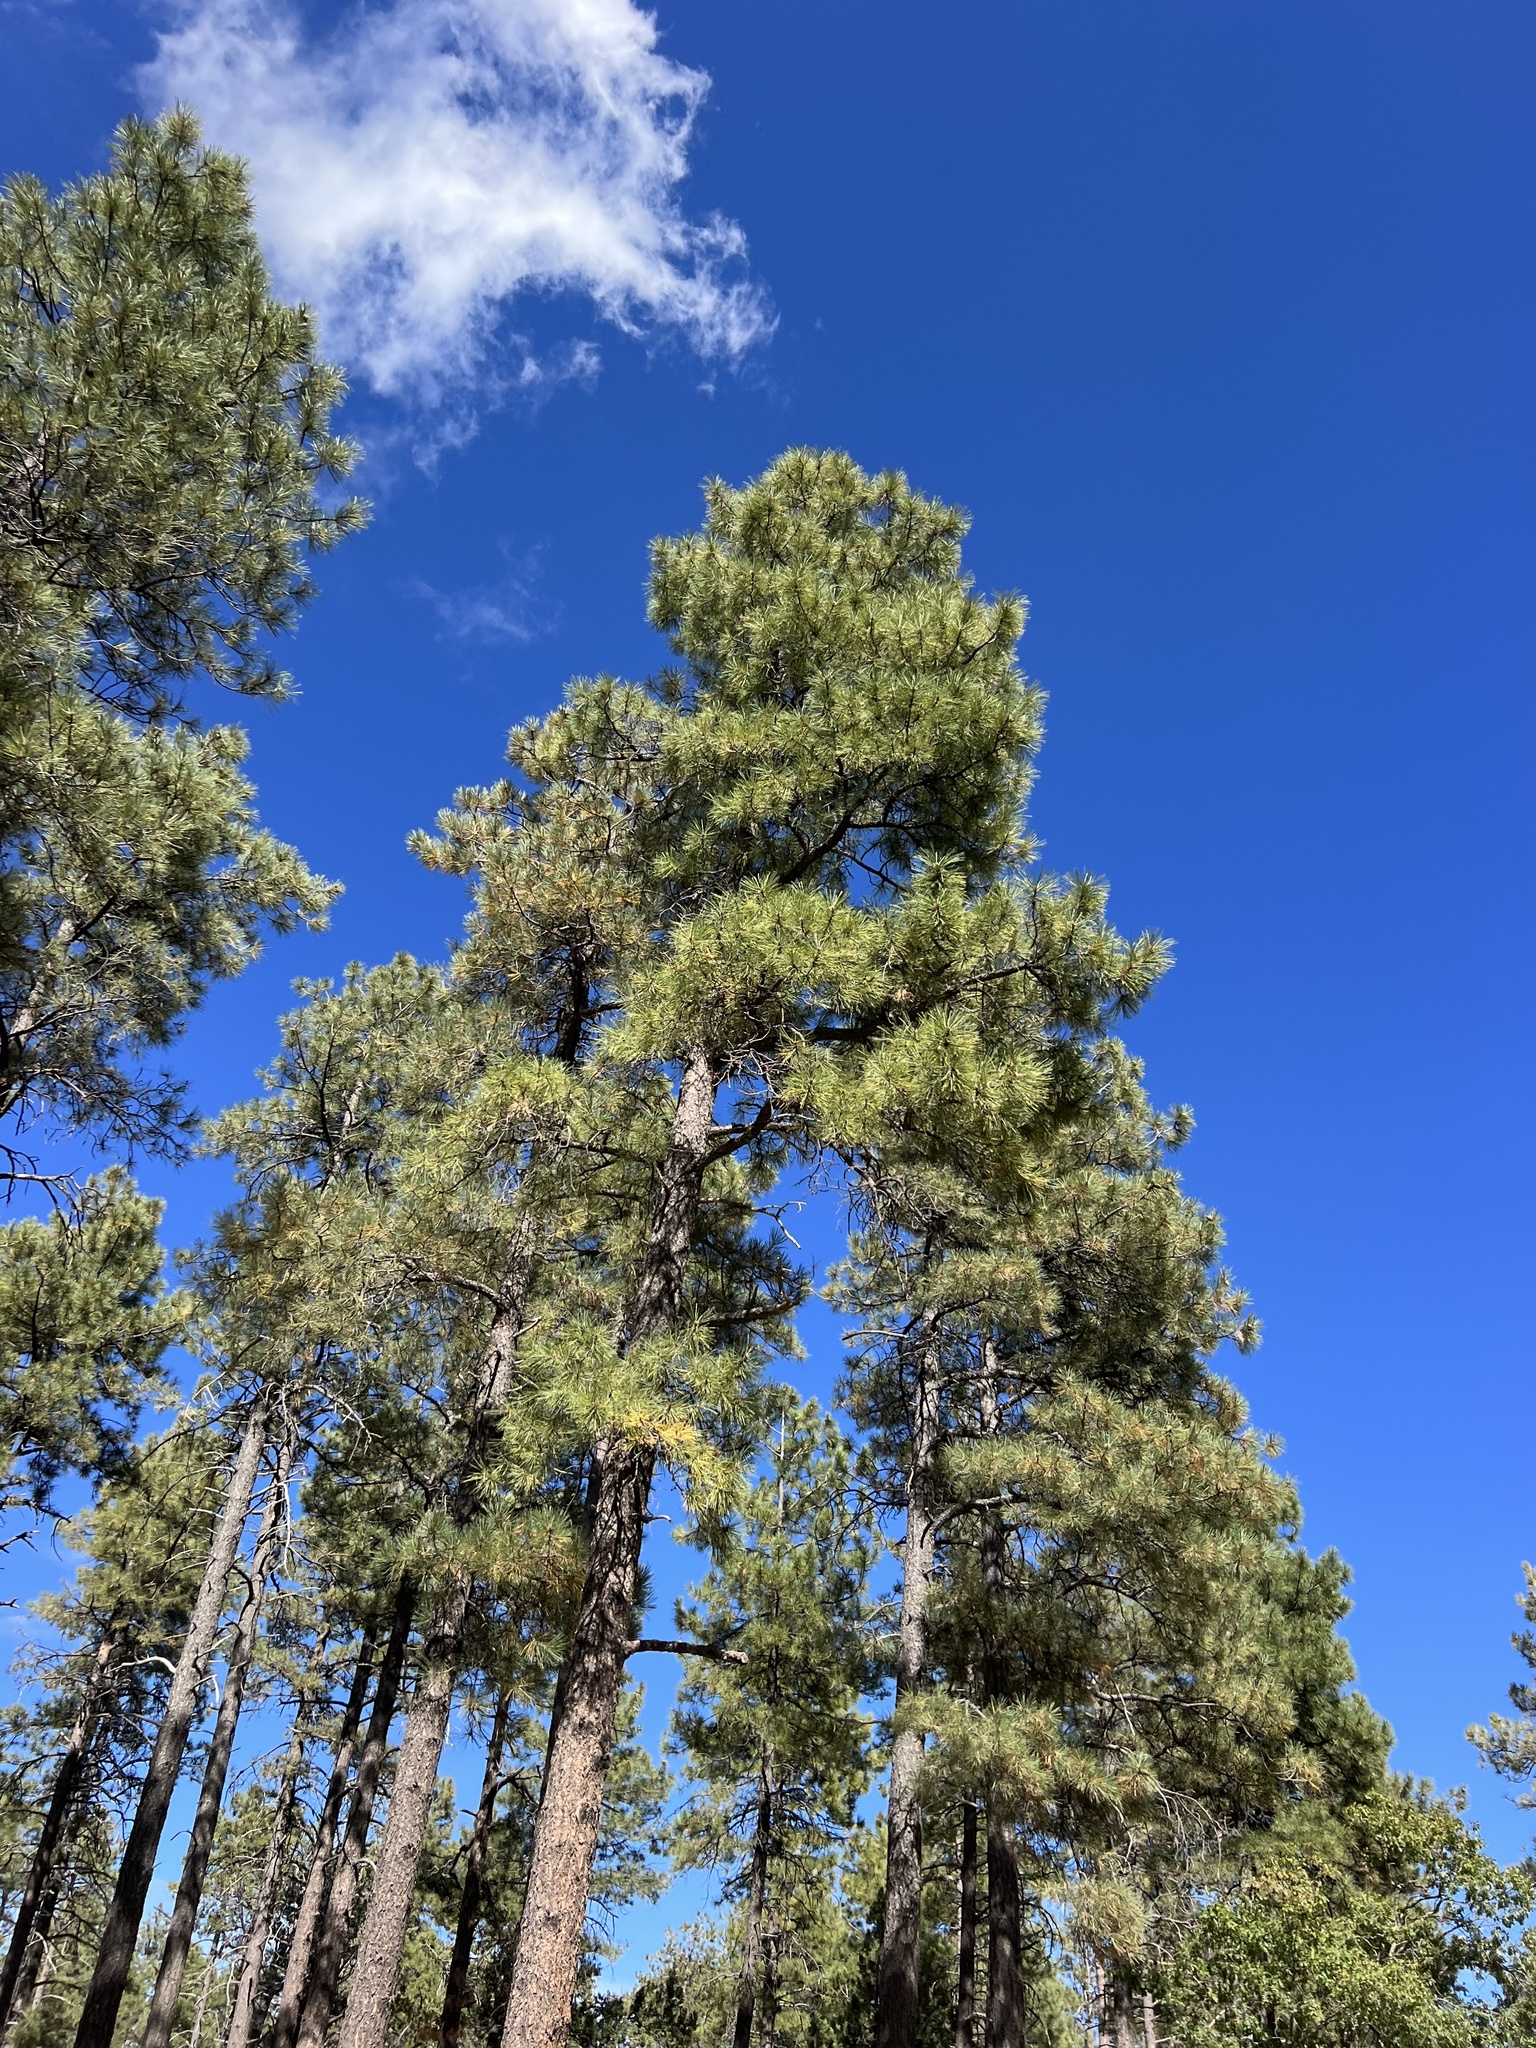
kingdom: Plantae
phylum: Tracheophyta
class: Pinopsida
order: Pinales
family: Pinaceae
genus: Pinus
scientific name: Pinus ponderosa
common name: Western yellow-pine
